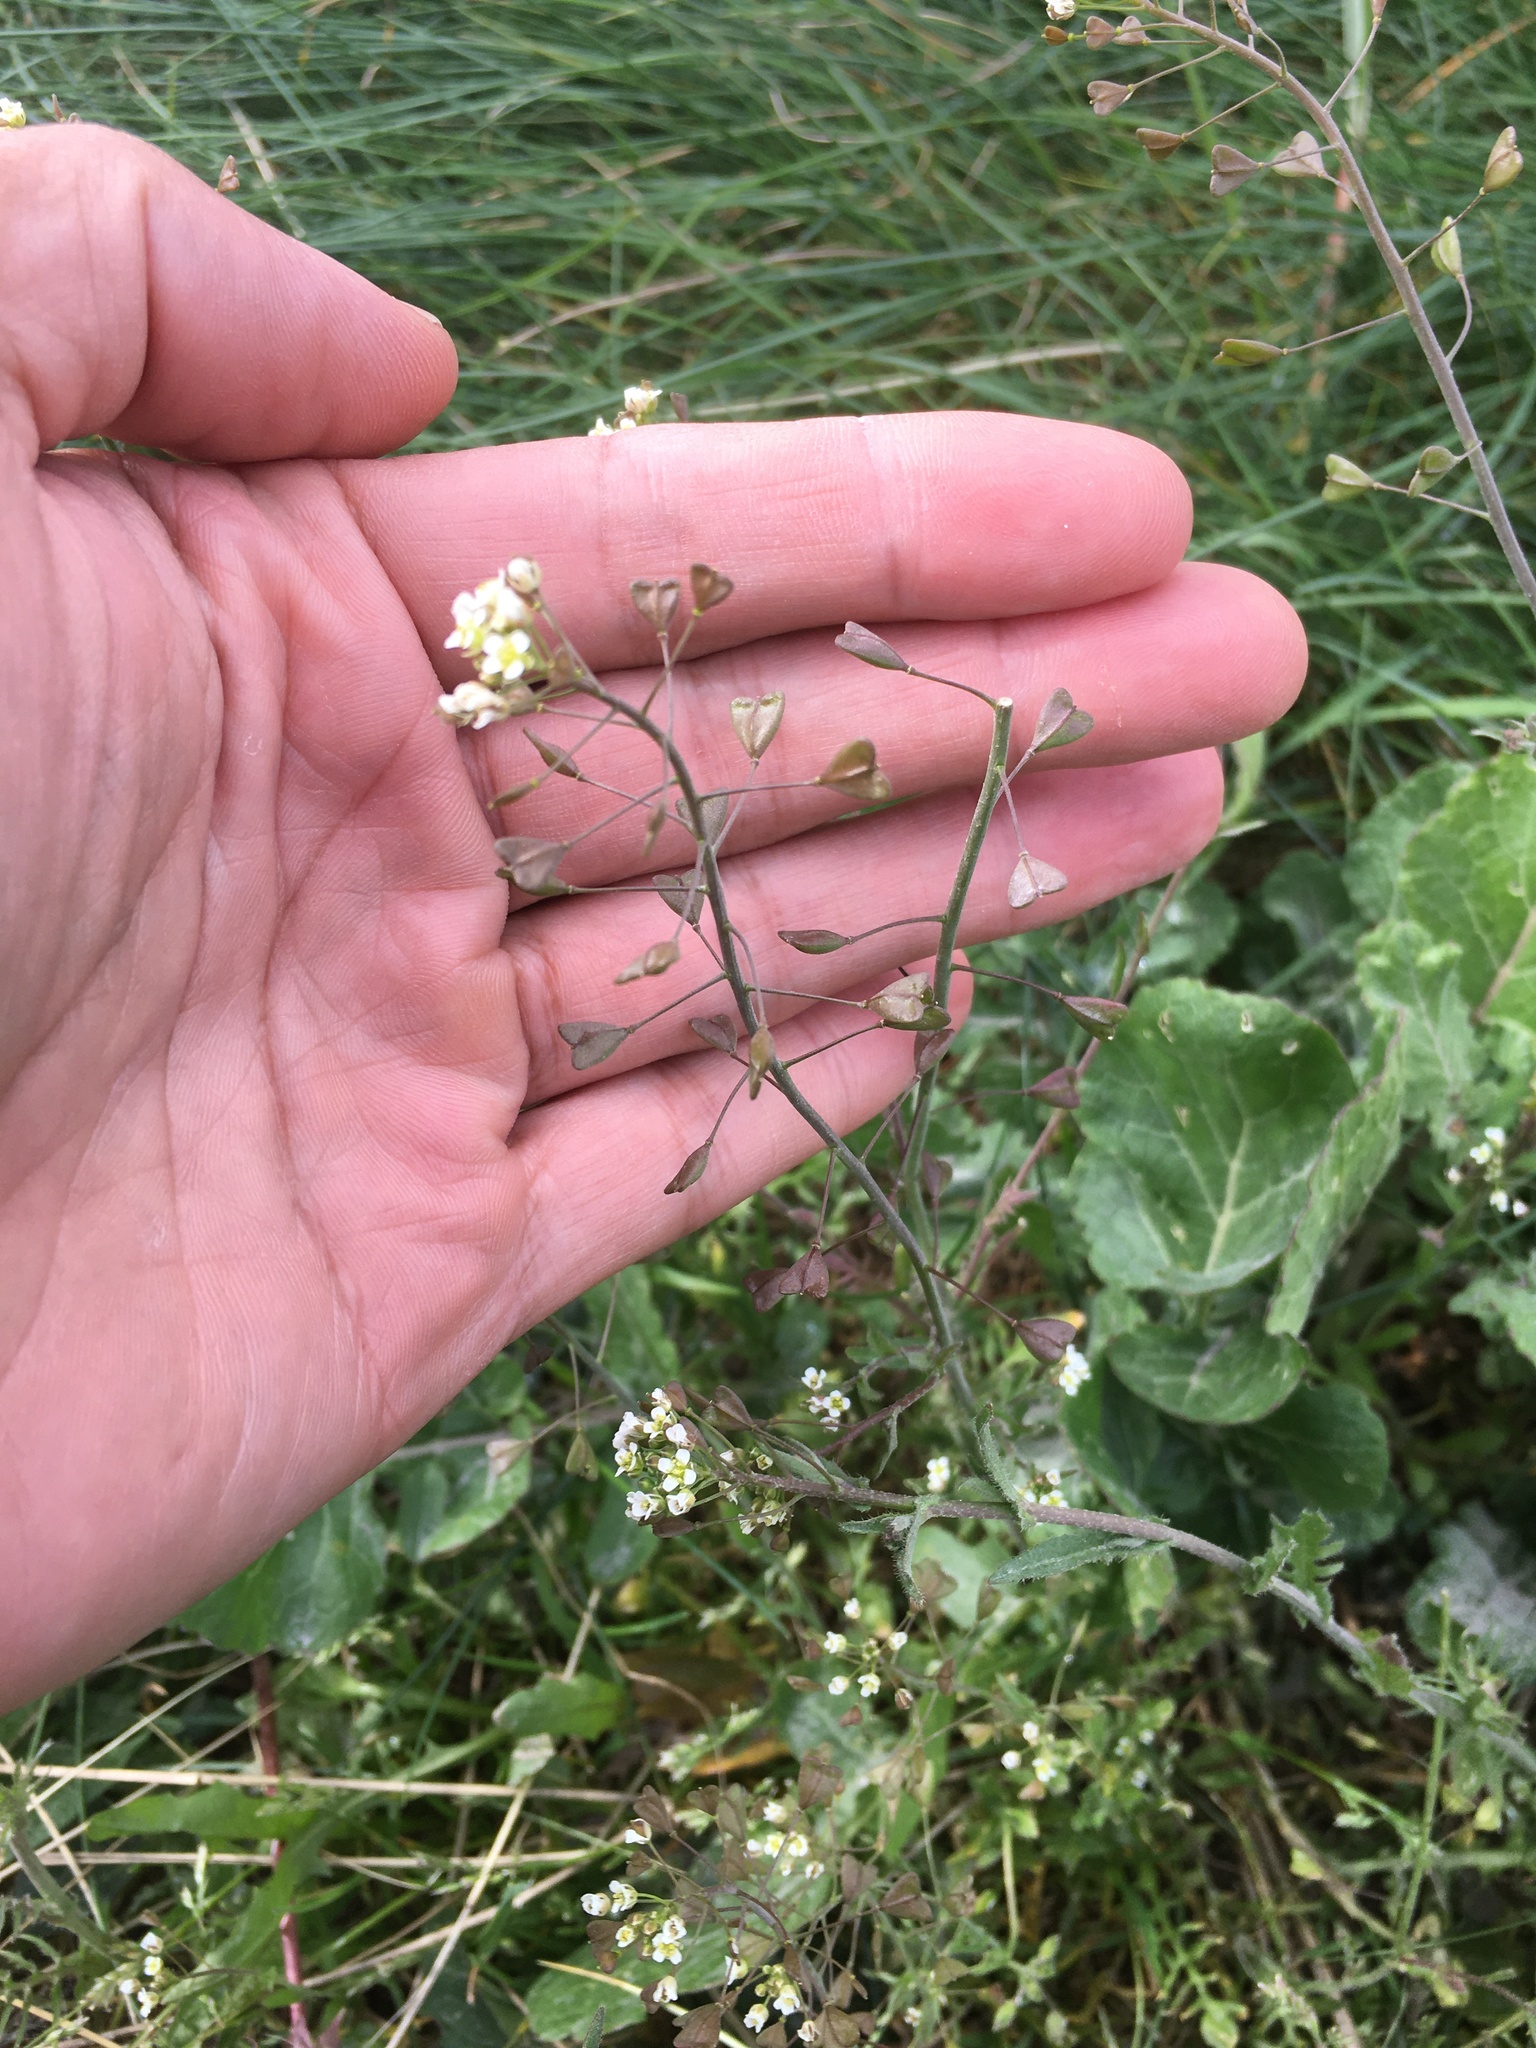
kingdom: Plantae
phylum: Tracheophyta
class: Magnoliopsida
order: Brassicales
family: Brassicaceae
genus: Capsella
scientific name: Capsella bursa-pastoris
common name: Shepherd's purse
